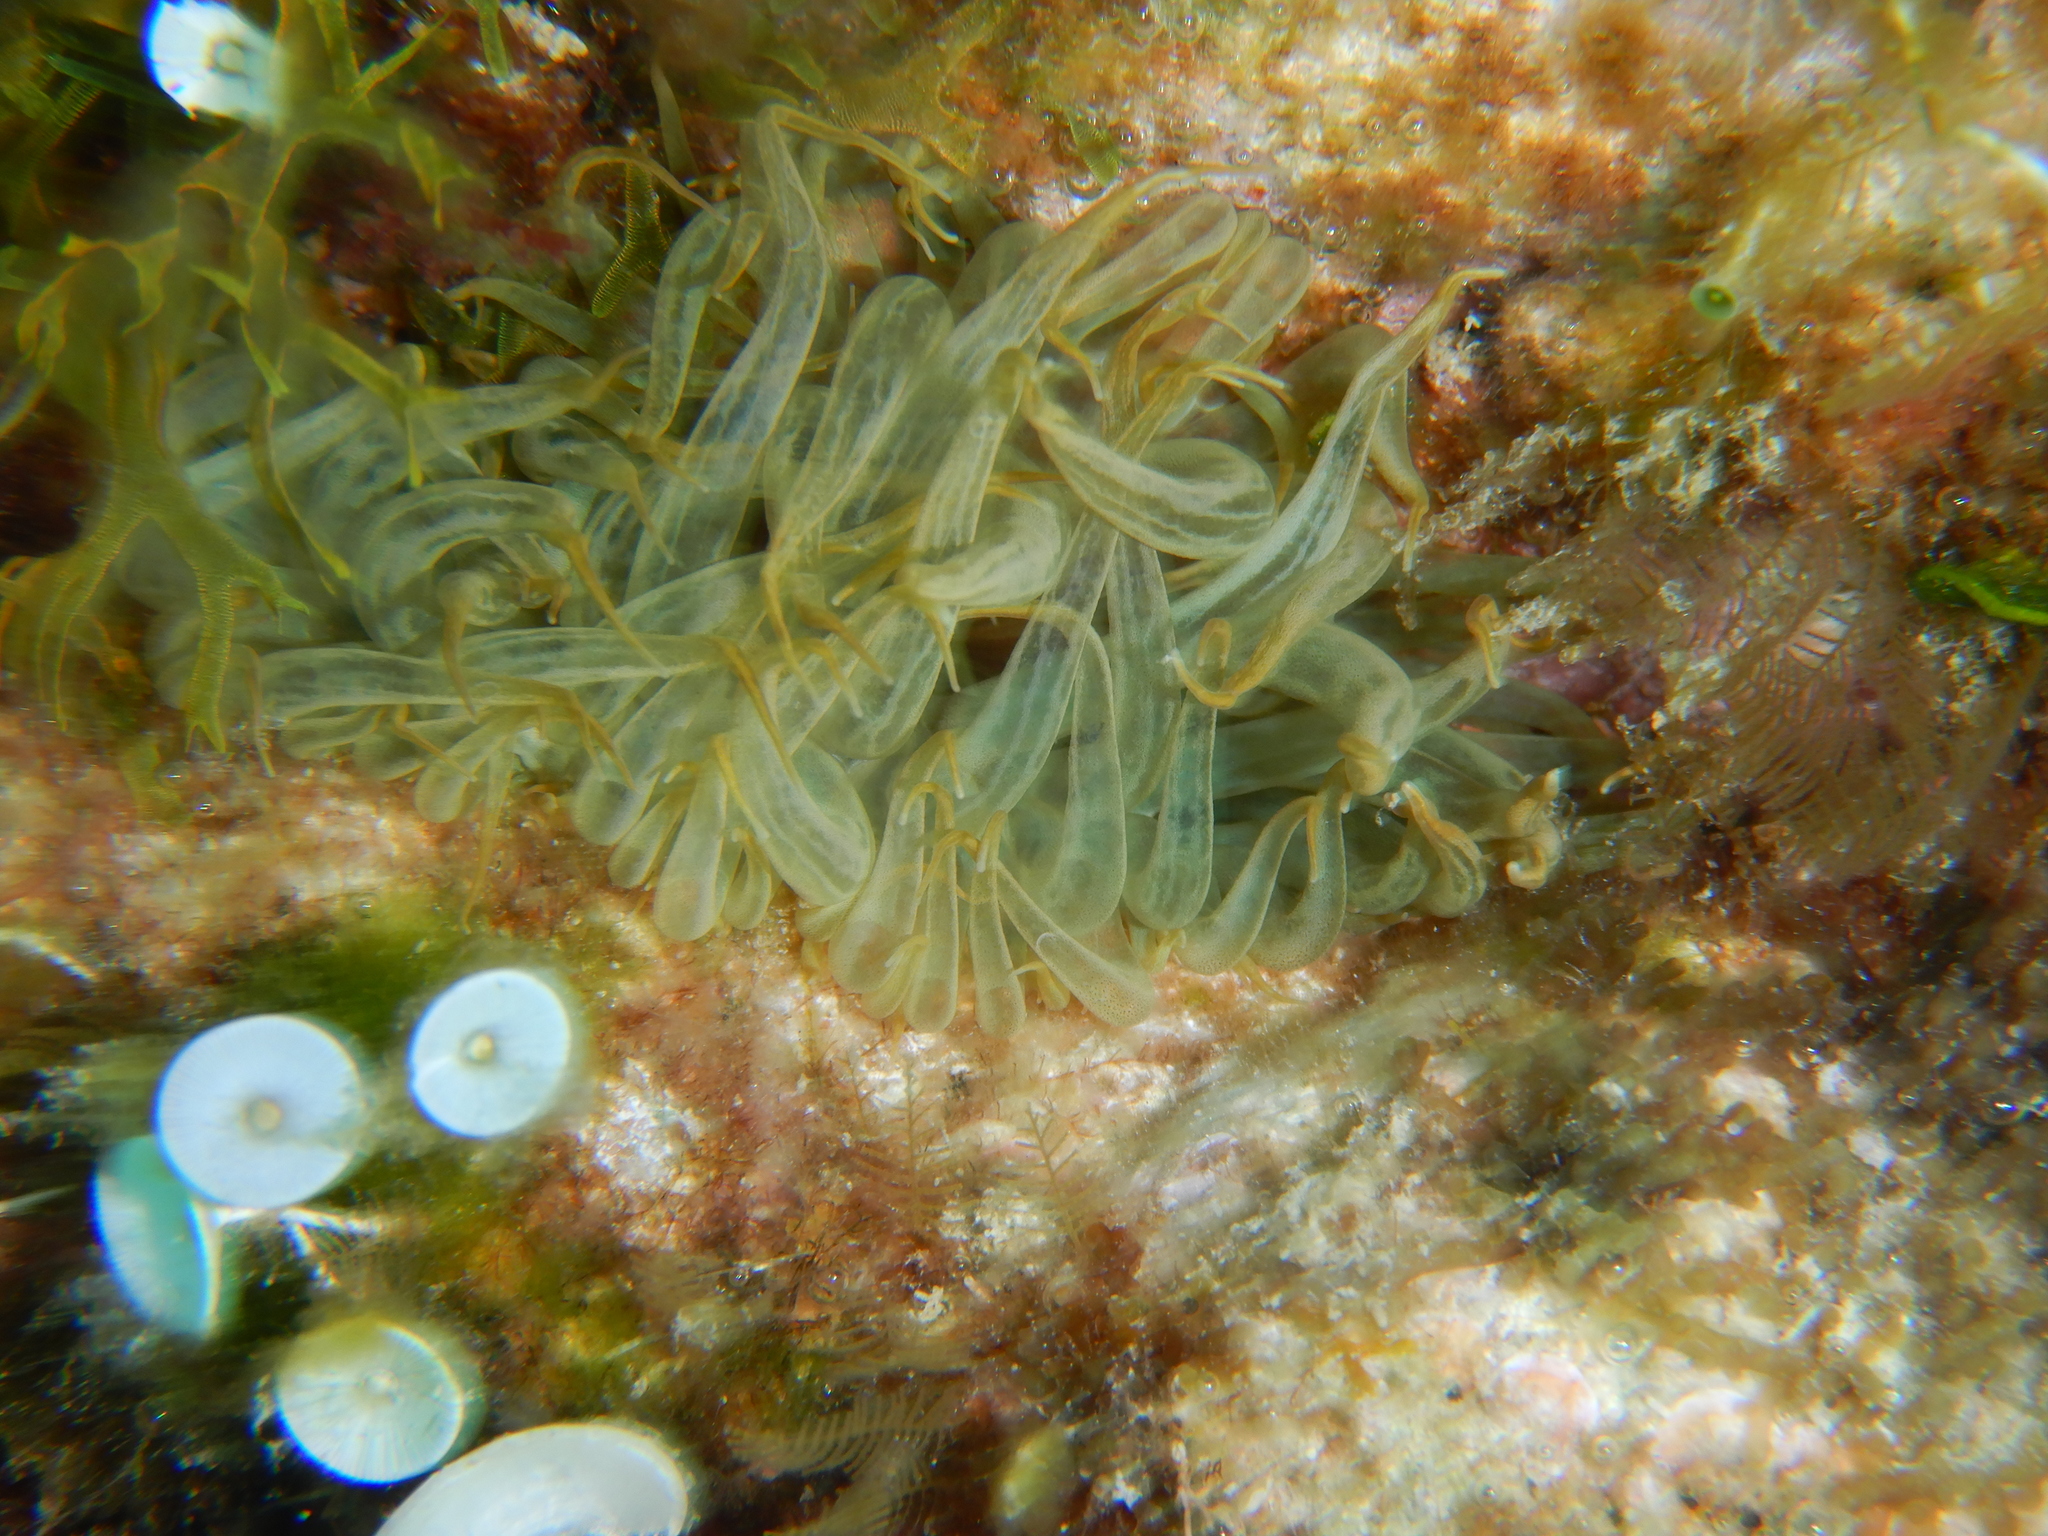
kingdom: Animalia
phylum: Cnidaria
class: Anthozoa
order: Actiniaria
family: Aiptasiidae
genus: Aiptasia
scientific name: Aiptasia mutabilis
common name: Trumpet anemone
